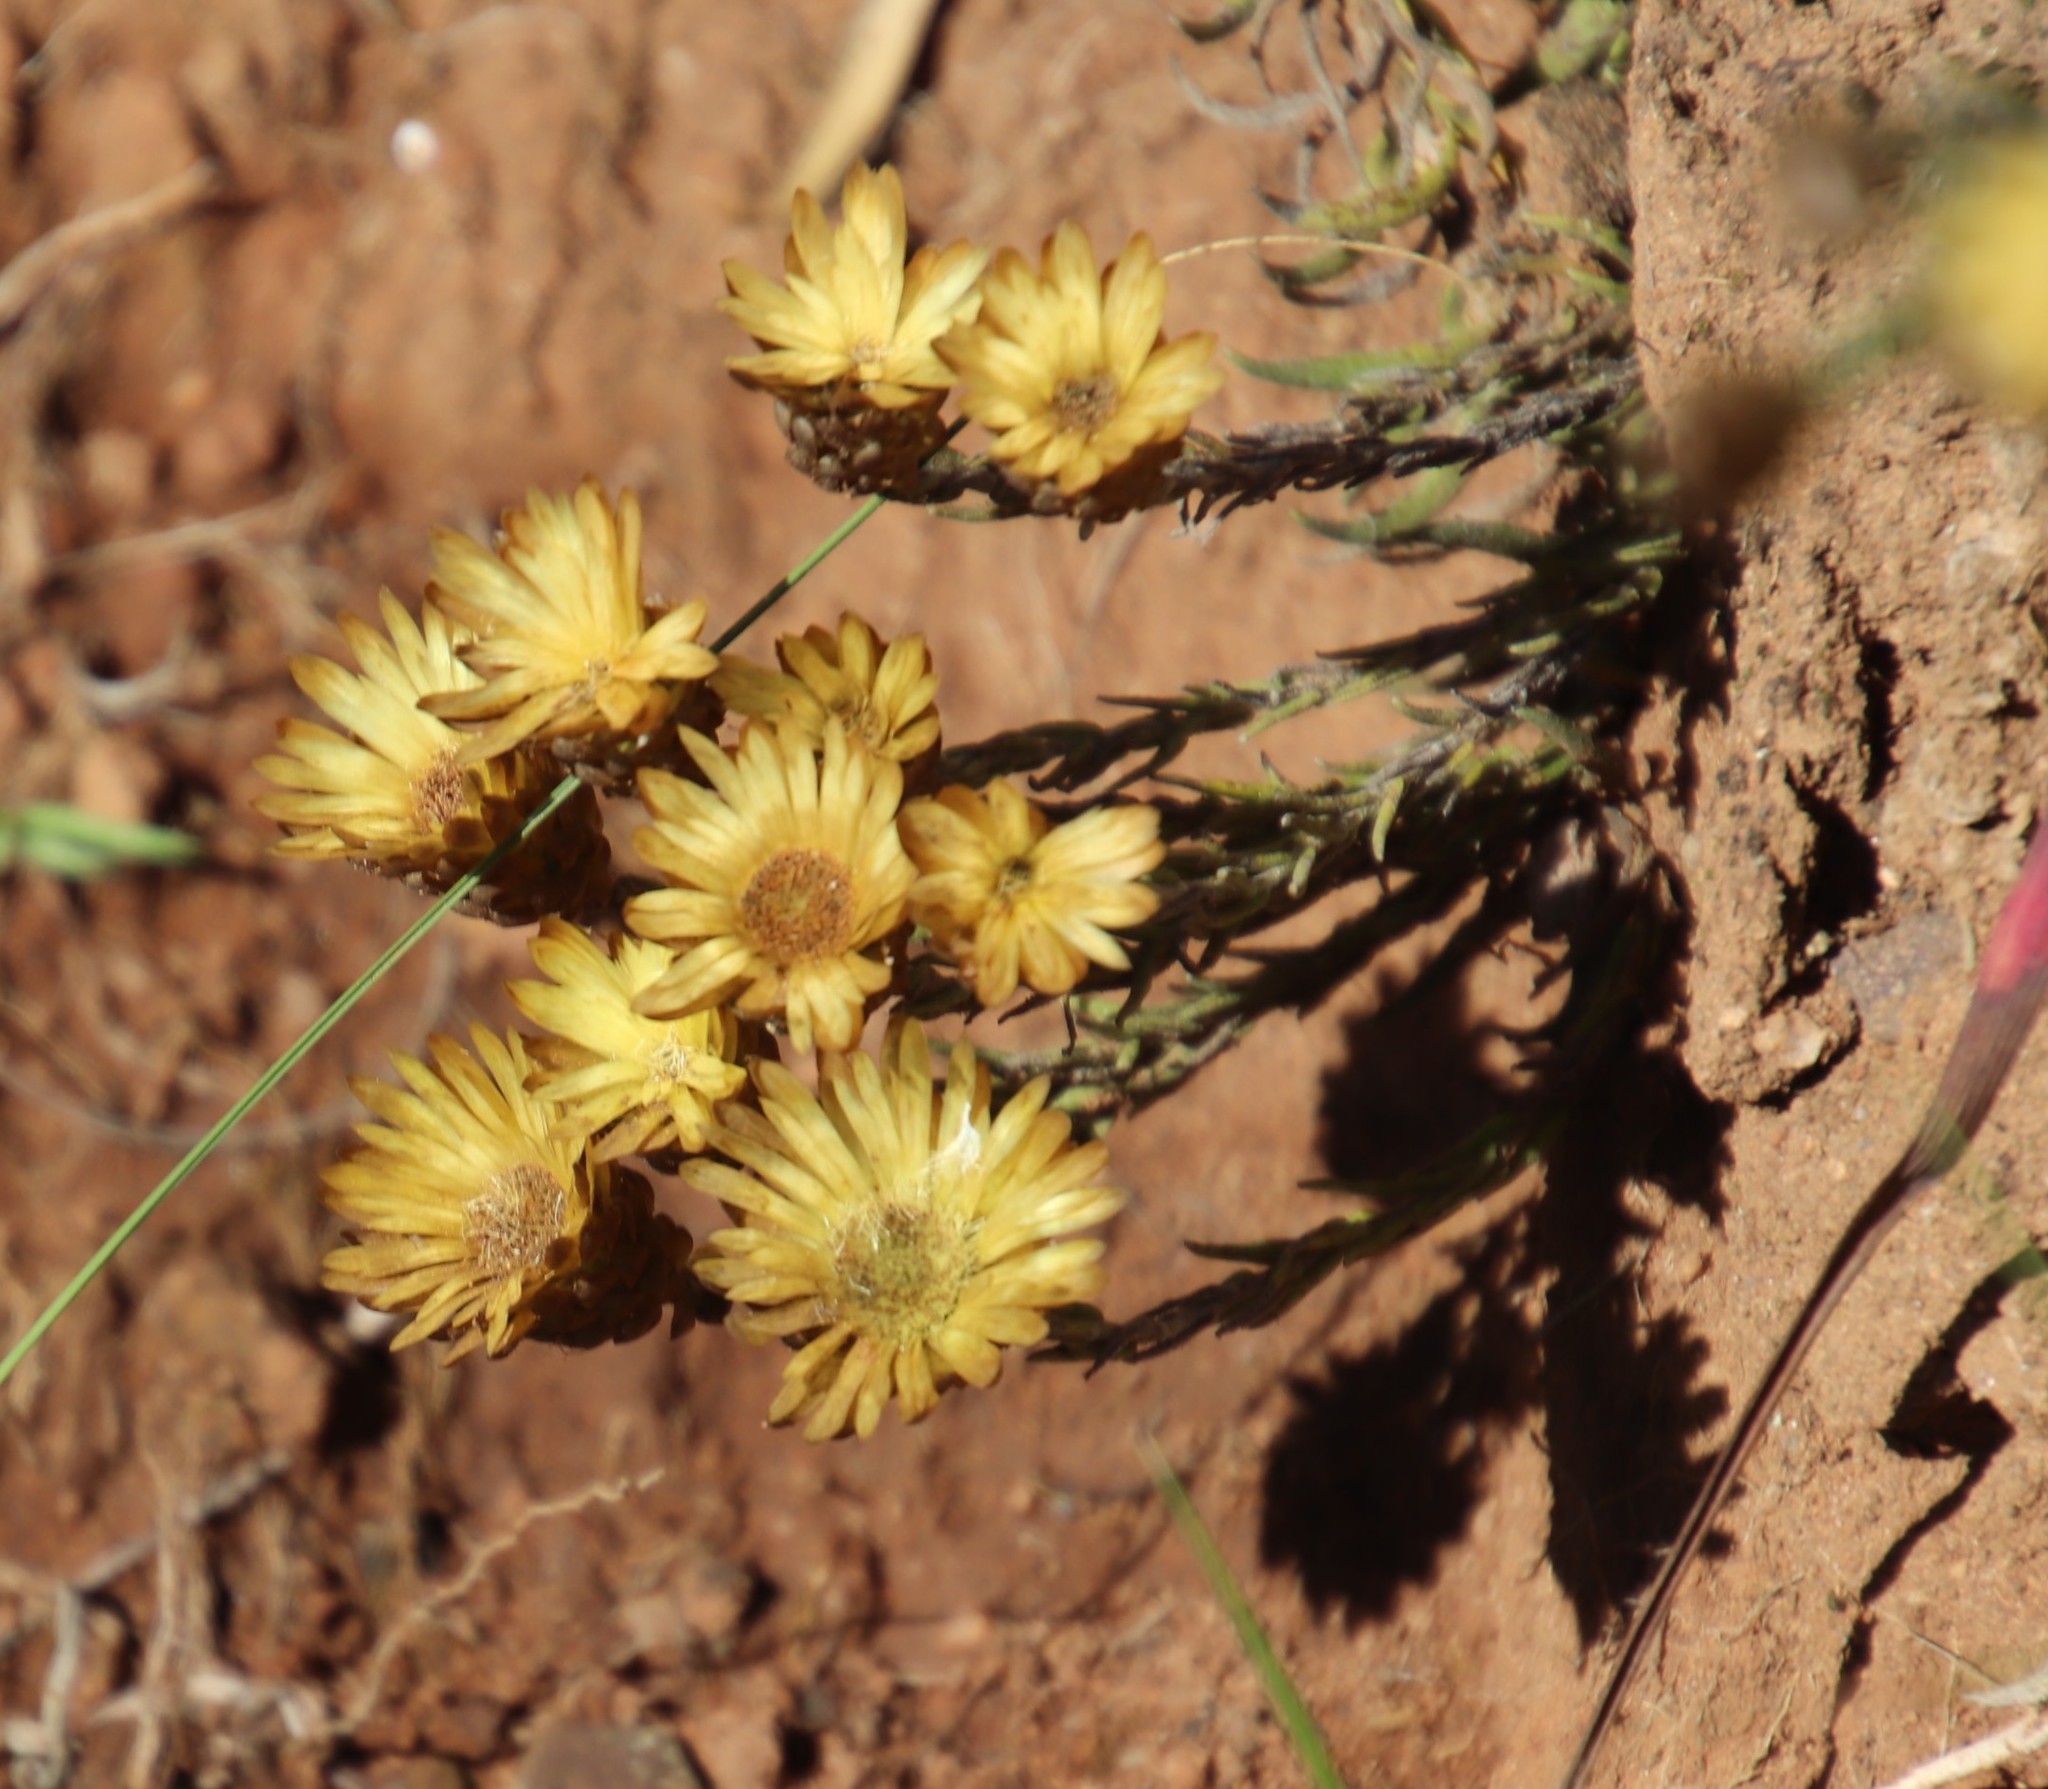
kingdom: Plantae
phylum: Tracheophyta
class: Magnoliopsida
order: Asterales
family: Asteraceae
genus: Helichrysum
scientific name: Helichrysum herbaceum
